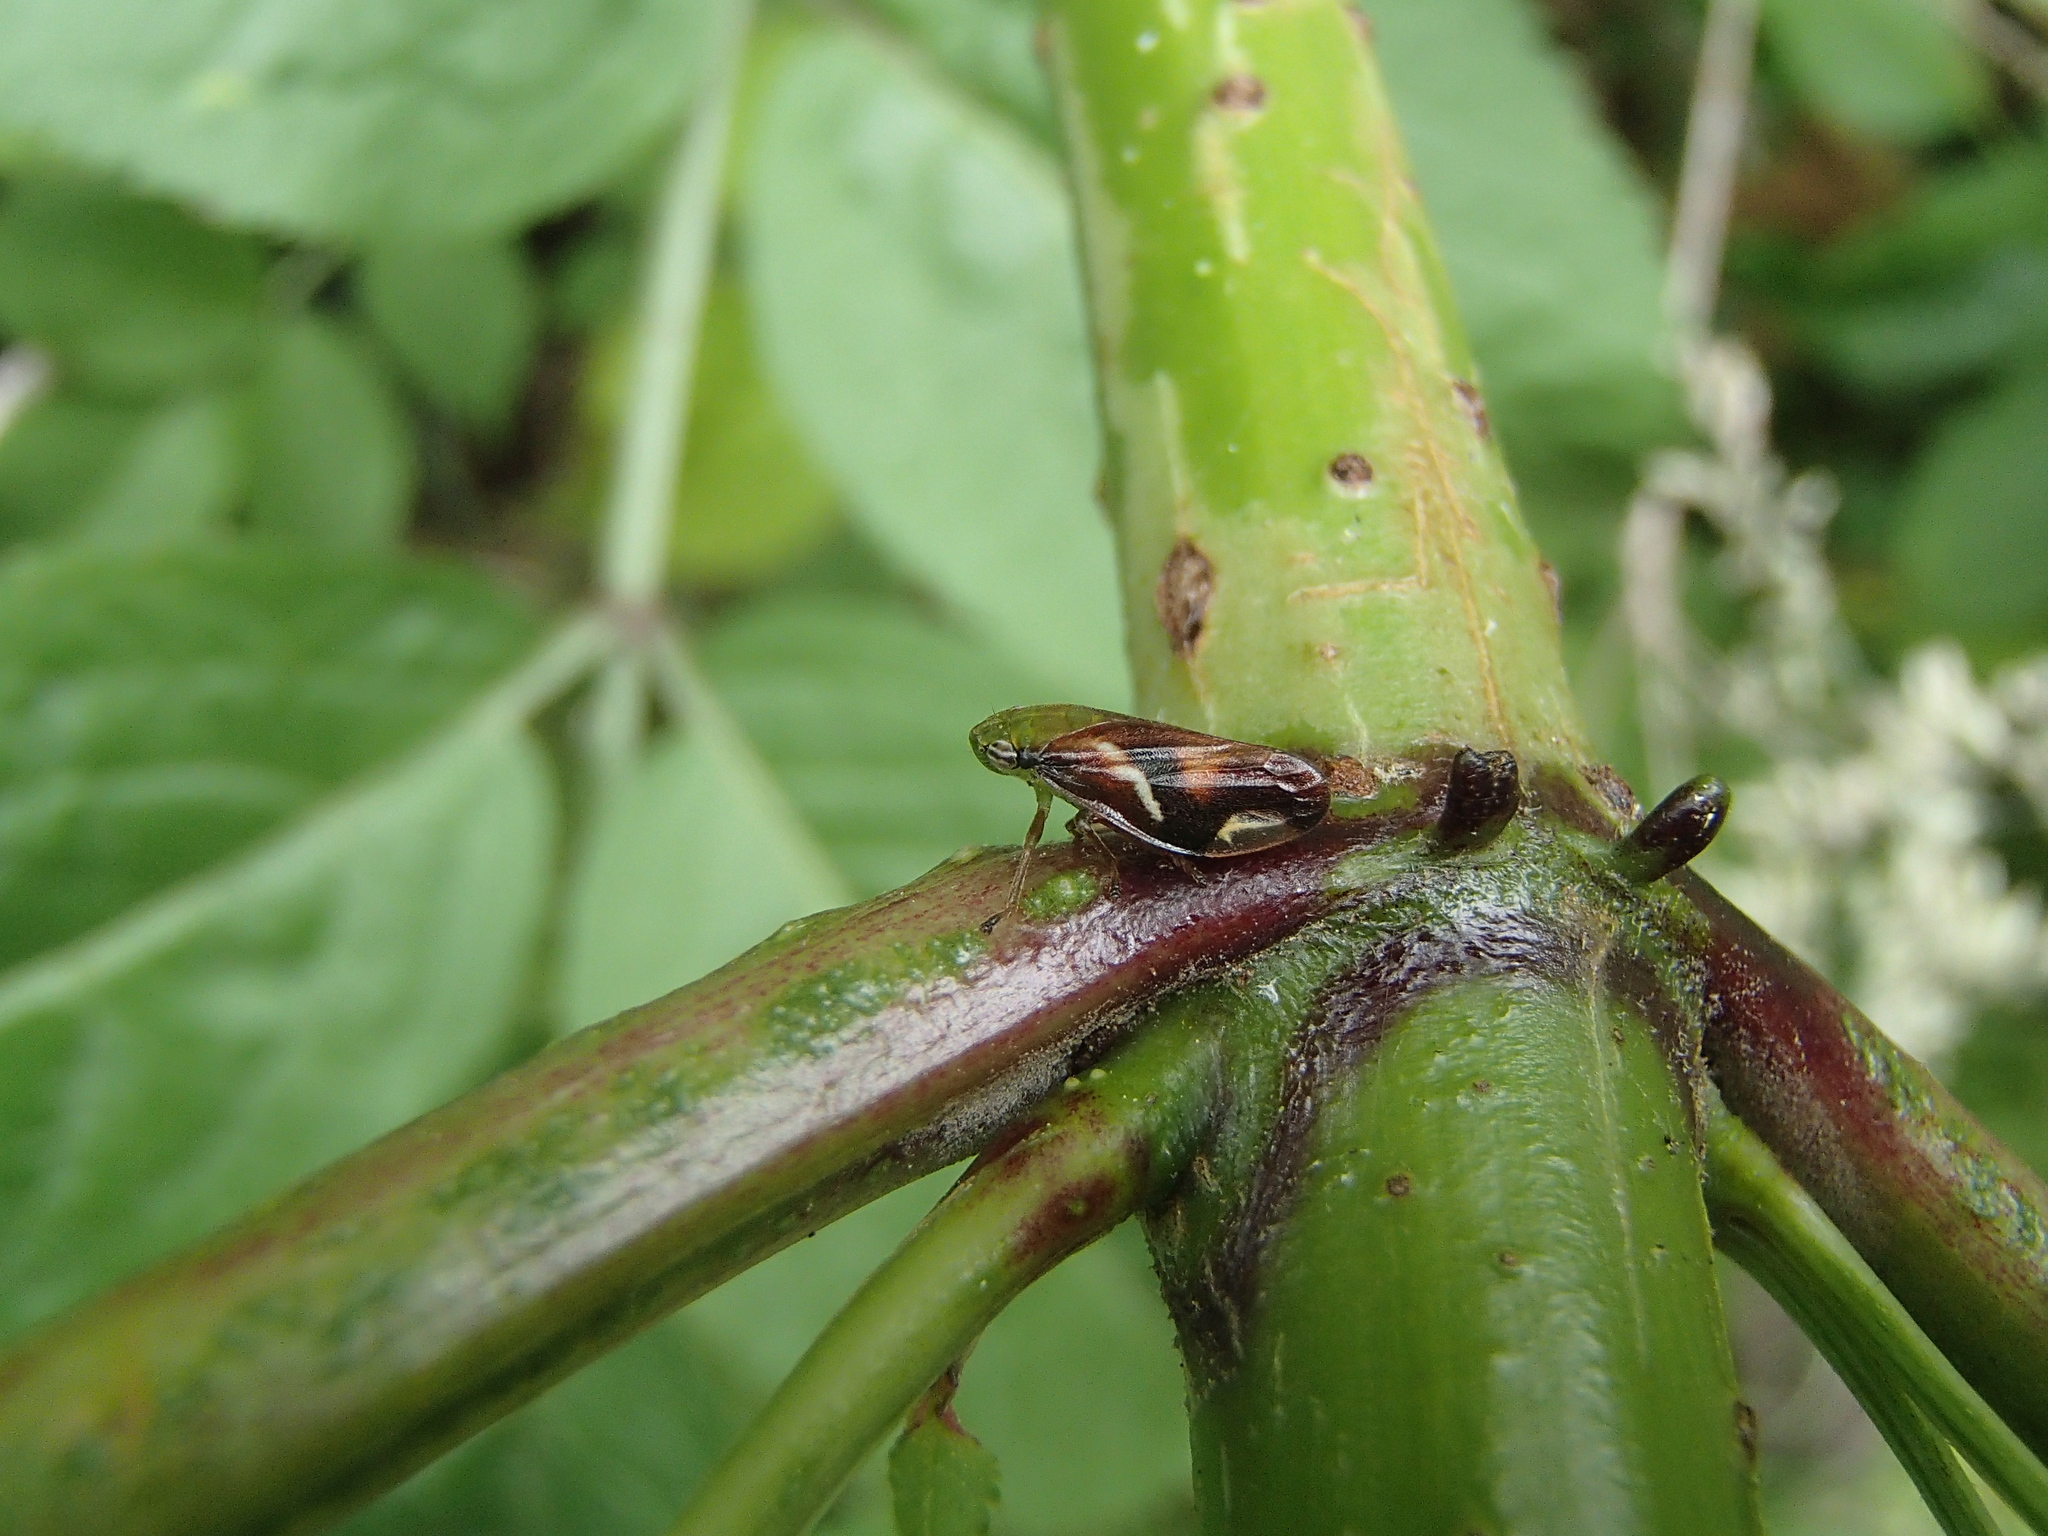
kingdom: Animalia
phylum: Arthropoda
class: Insecta
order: Hemiptera
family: Aphrophoridae
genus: Carystoterpa
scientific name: Carystoterpa fingens
